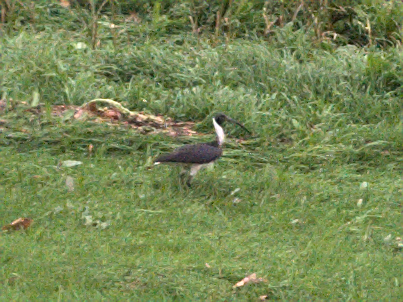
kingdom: Animalia
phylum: Chordata
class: Aves
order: Pelecaniformes
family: Threskiornithidae
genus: Threskiornis
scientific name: Threskiornis spinicollis
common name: Straw-necked ibis
